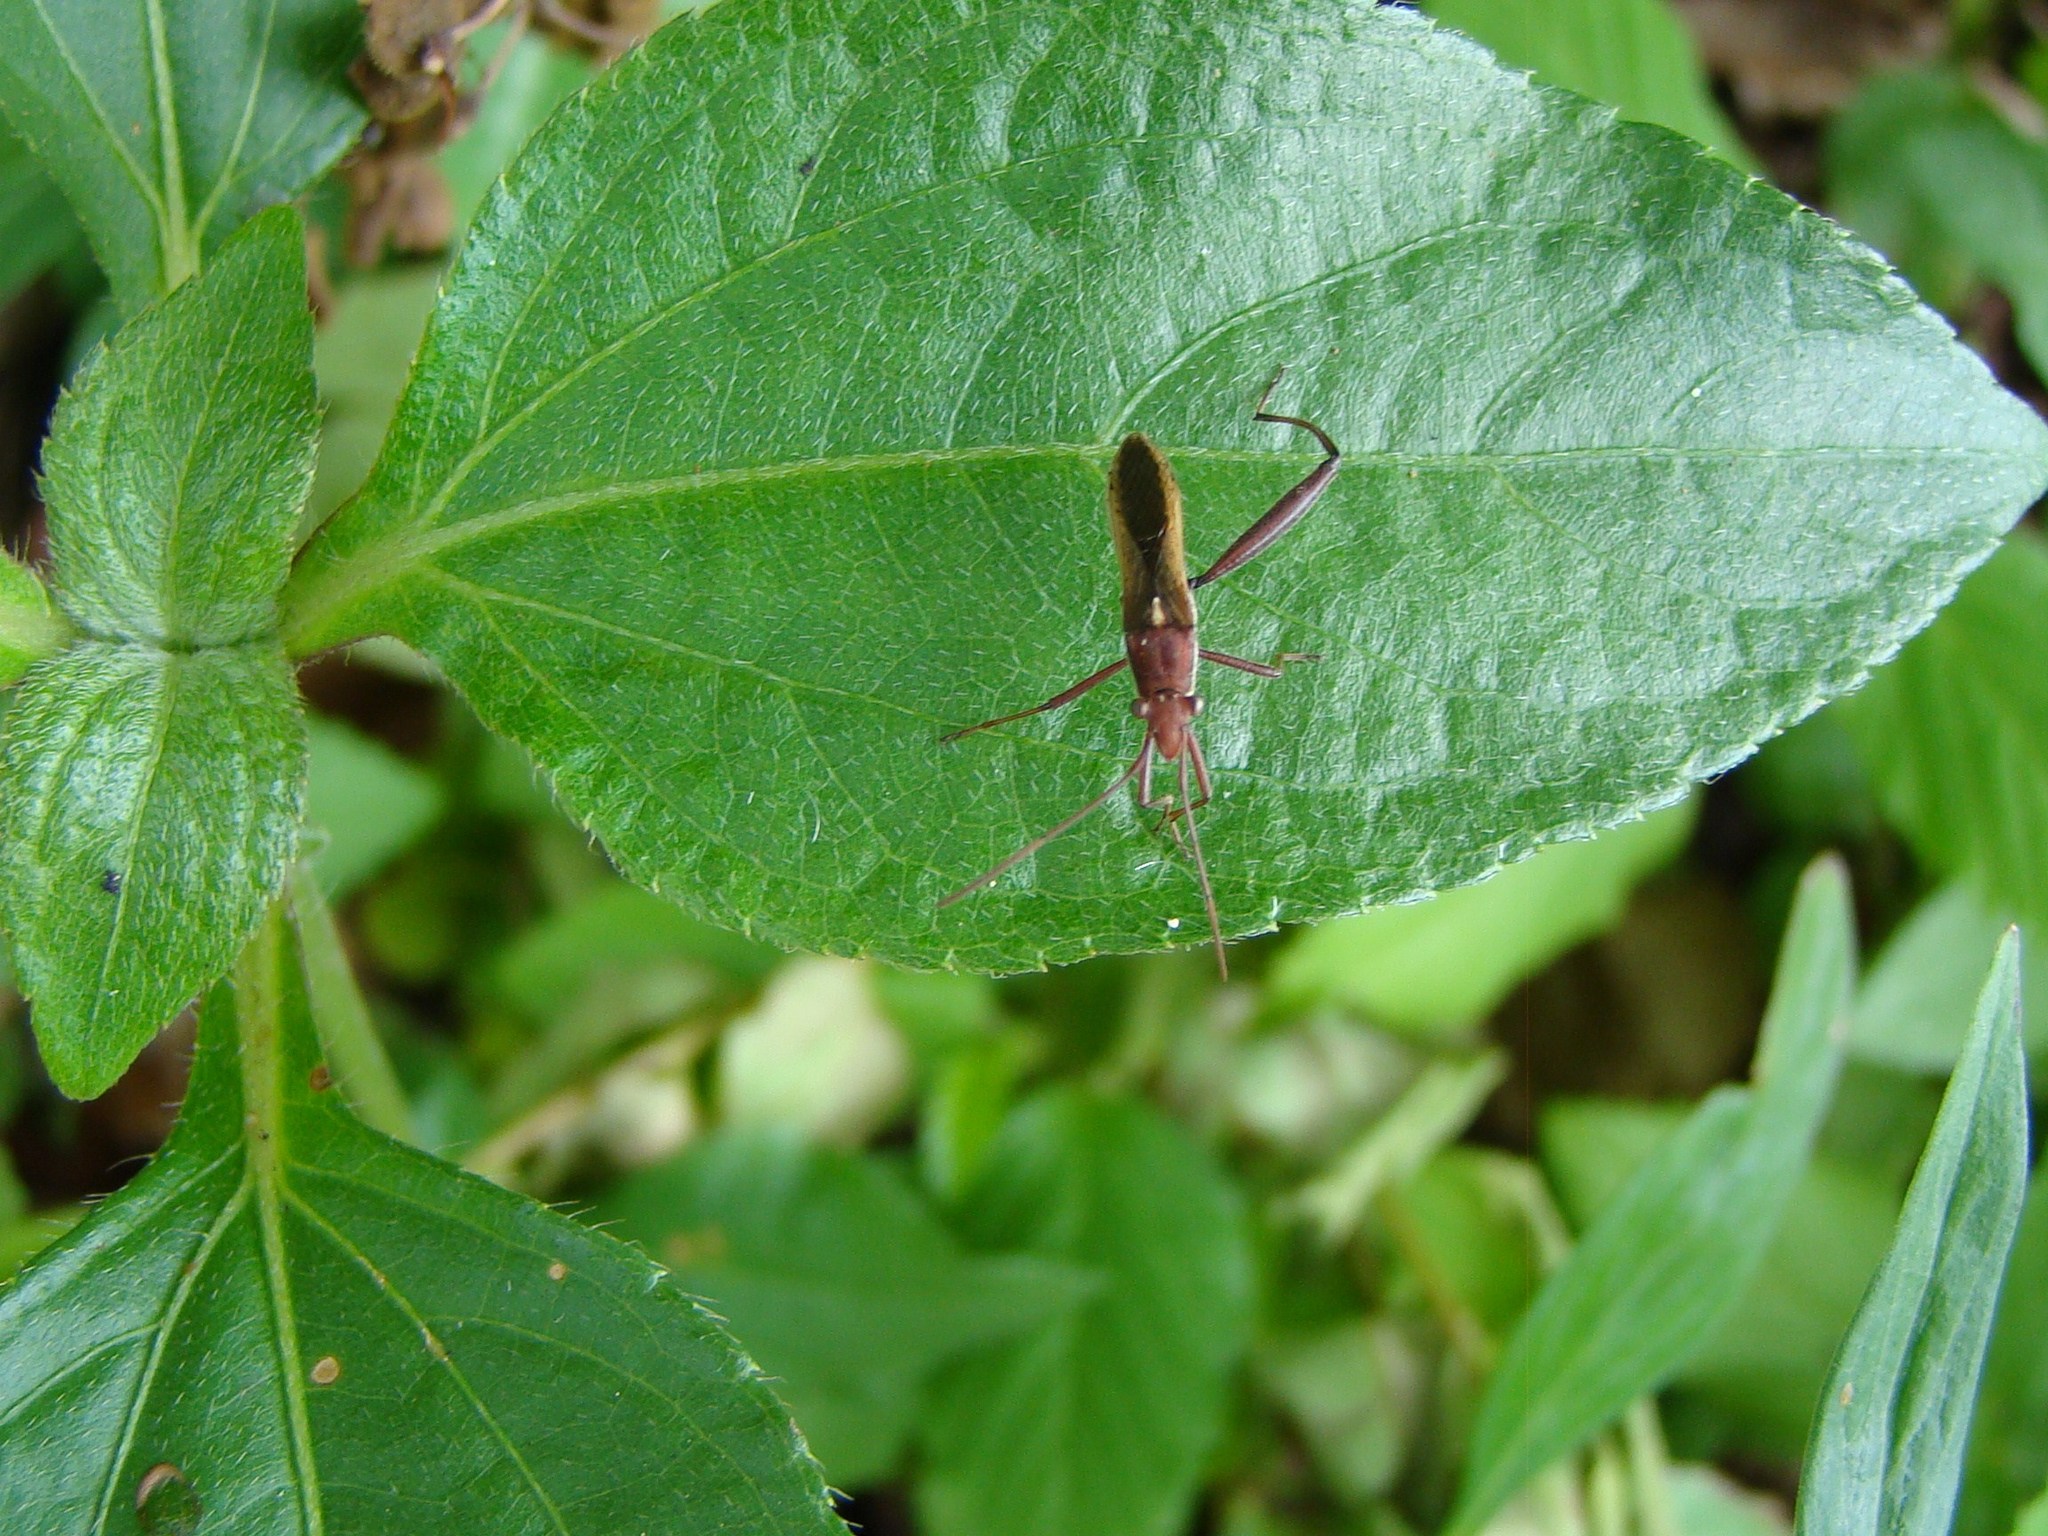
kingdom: Animalia
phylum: Arthropoda
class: Insecta
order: Hemiptera
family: Alydidae
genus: Melanacanthus
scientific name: Melanacanthus scutellaris
